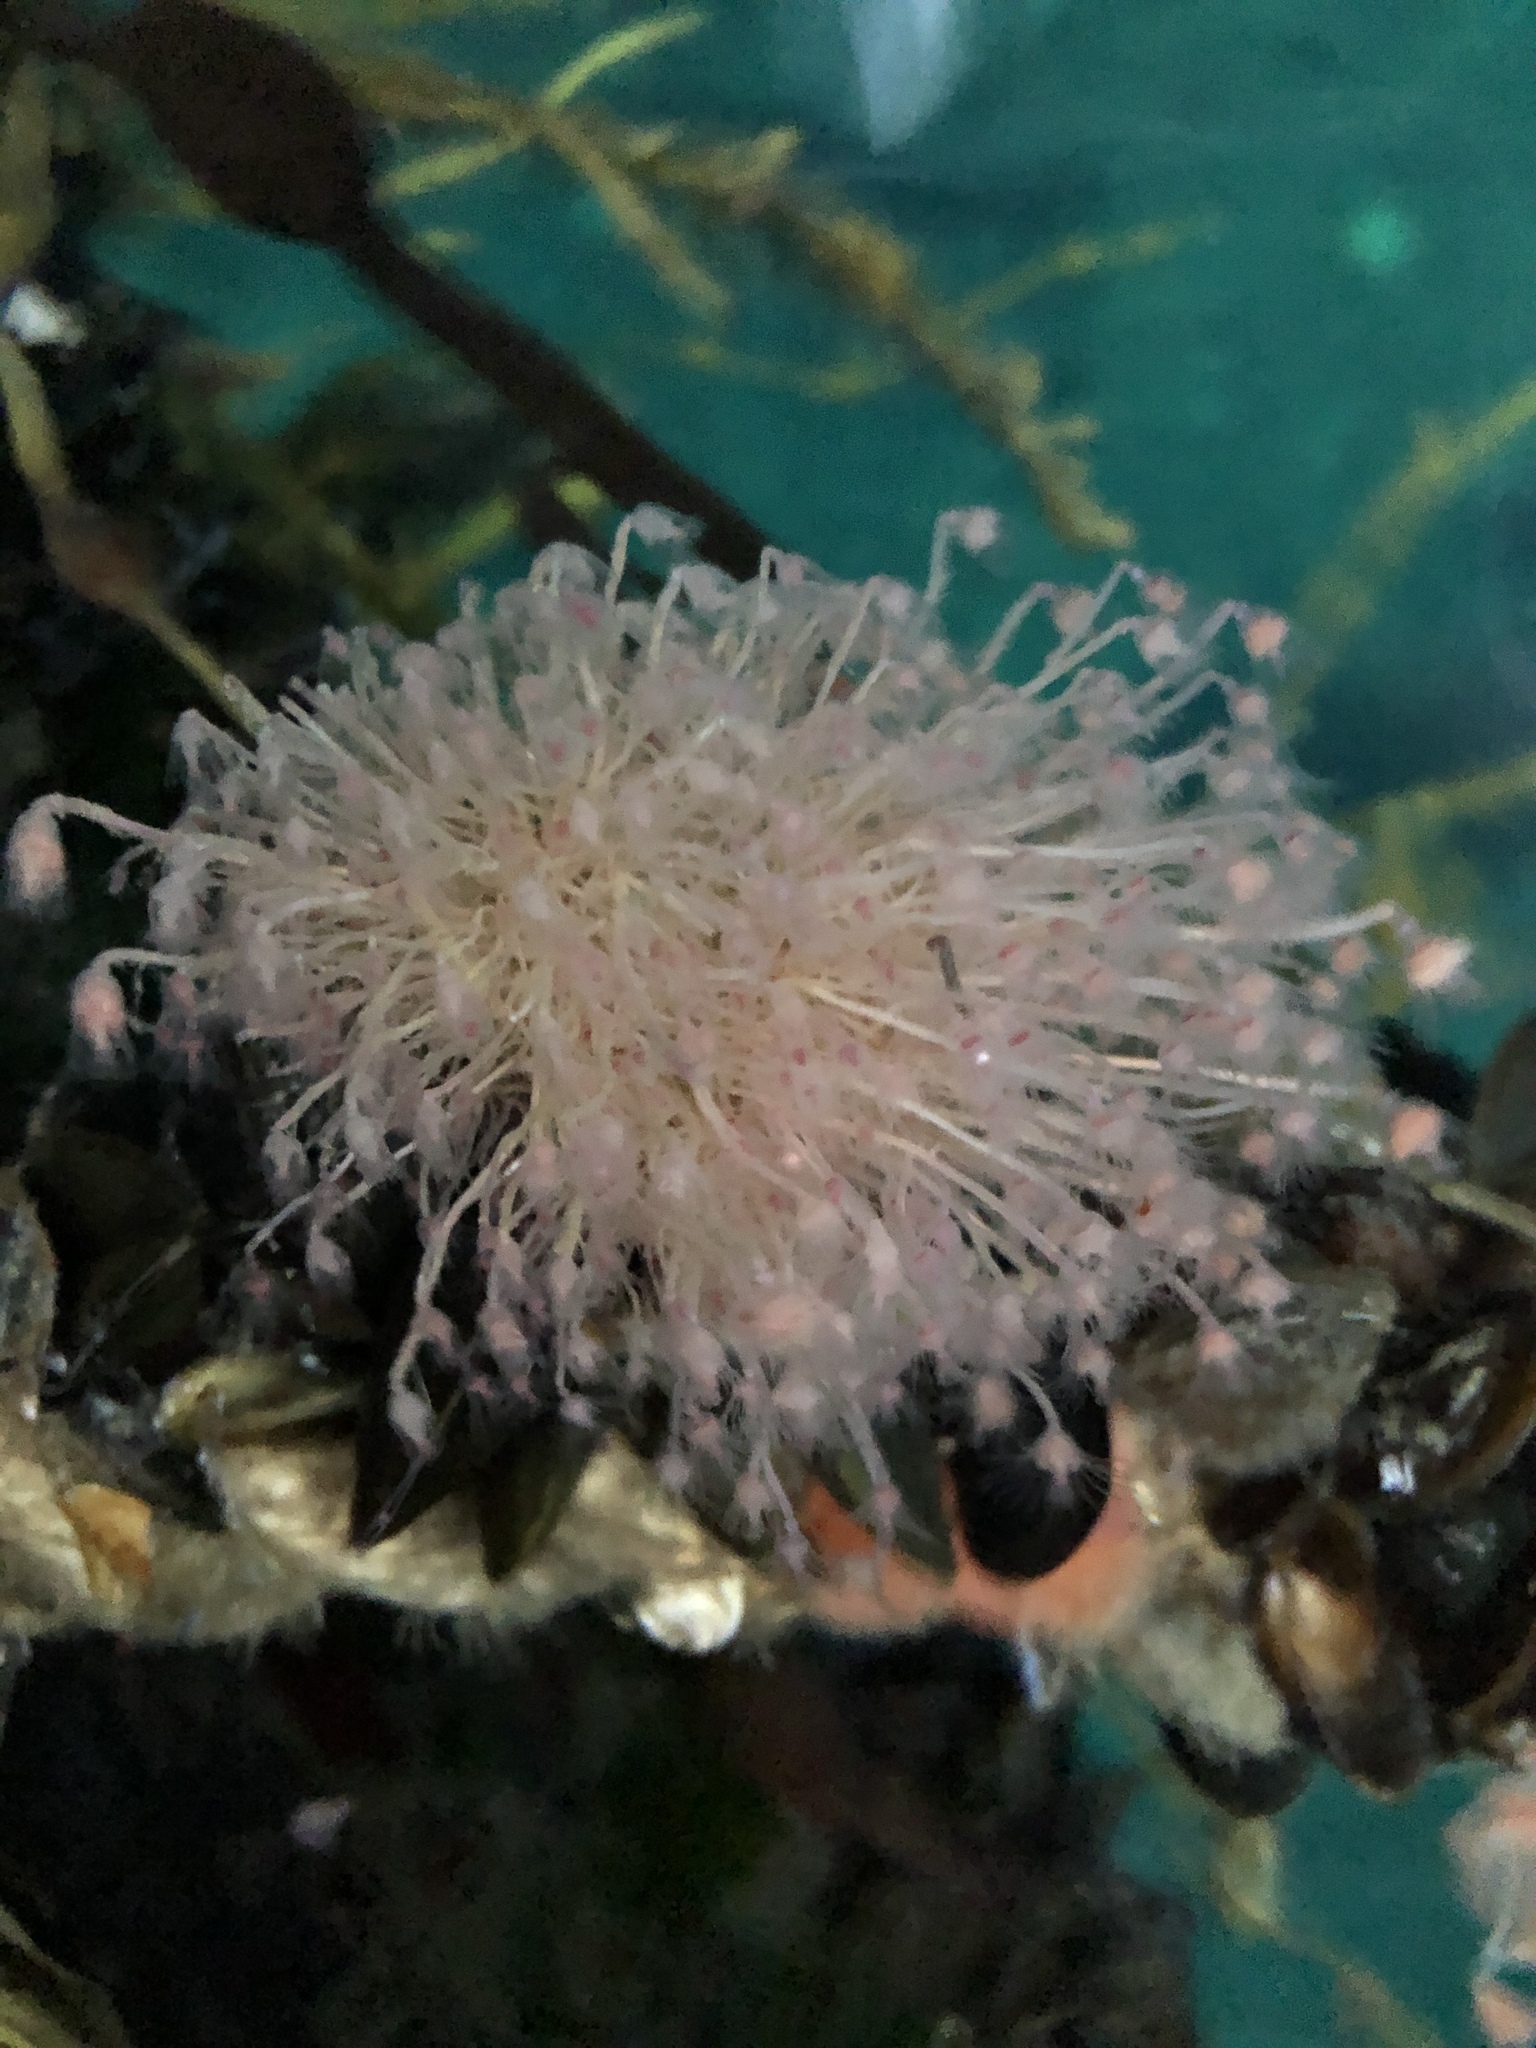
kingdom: Animalia
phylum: Cnidaria
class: Hydrozoa
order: Anthoathecata
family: Tubulariidae
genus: Ectopleura
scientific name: Ectopleura larynx
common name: Ringed tubularia
